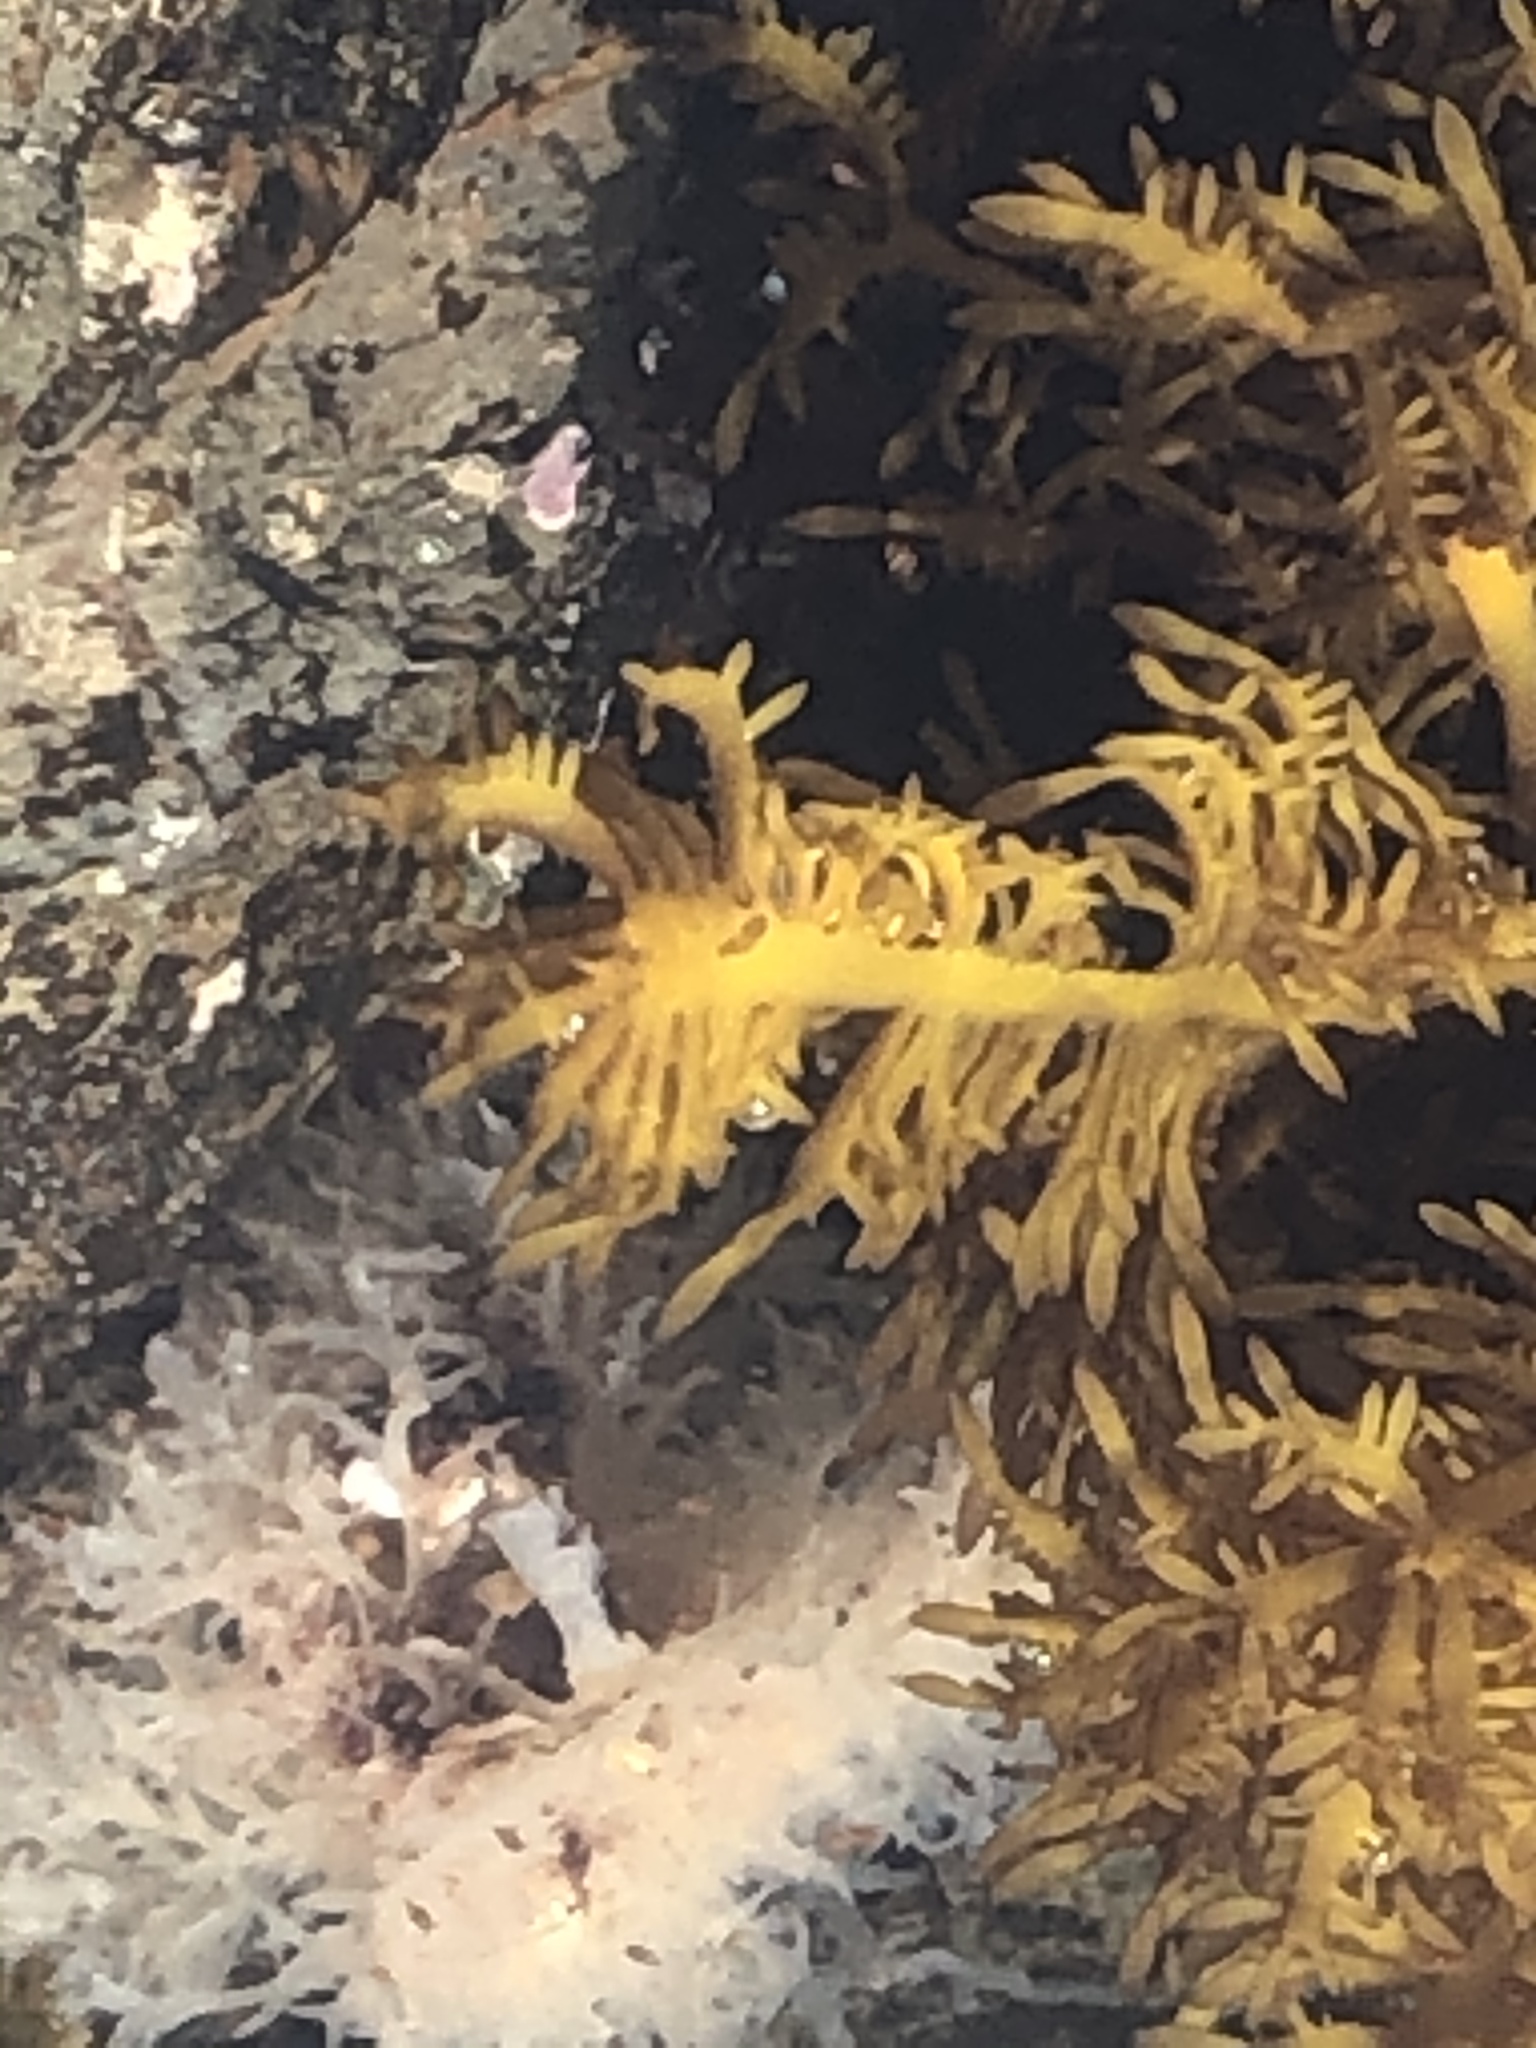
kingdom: Plantae
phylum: Rhodophyta
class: Florideophyceae
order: Halymeniales
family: Halymeniaceae
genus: Grateloupia
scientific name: Grateloupia Prionitis lanceolata
